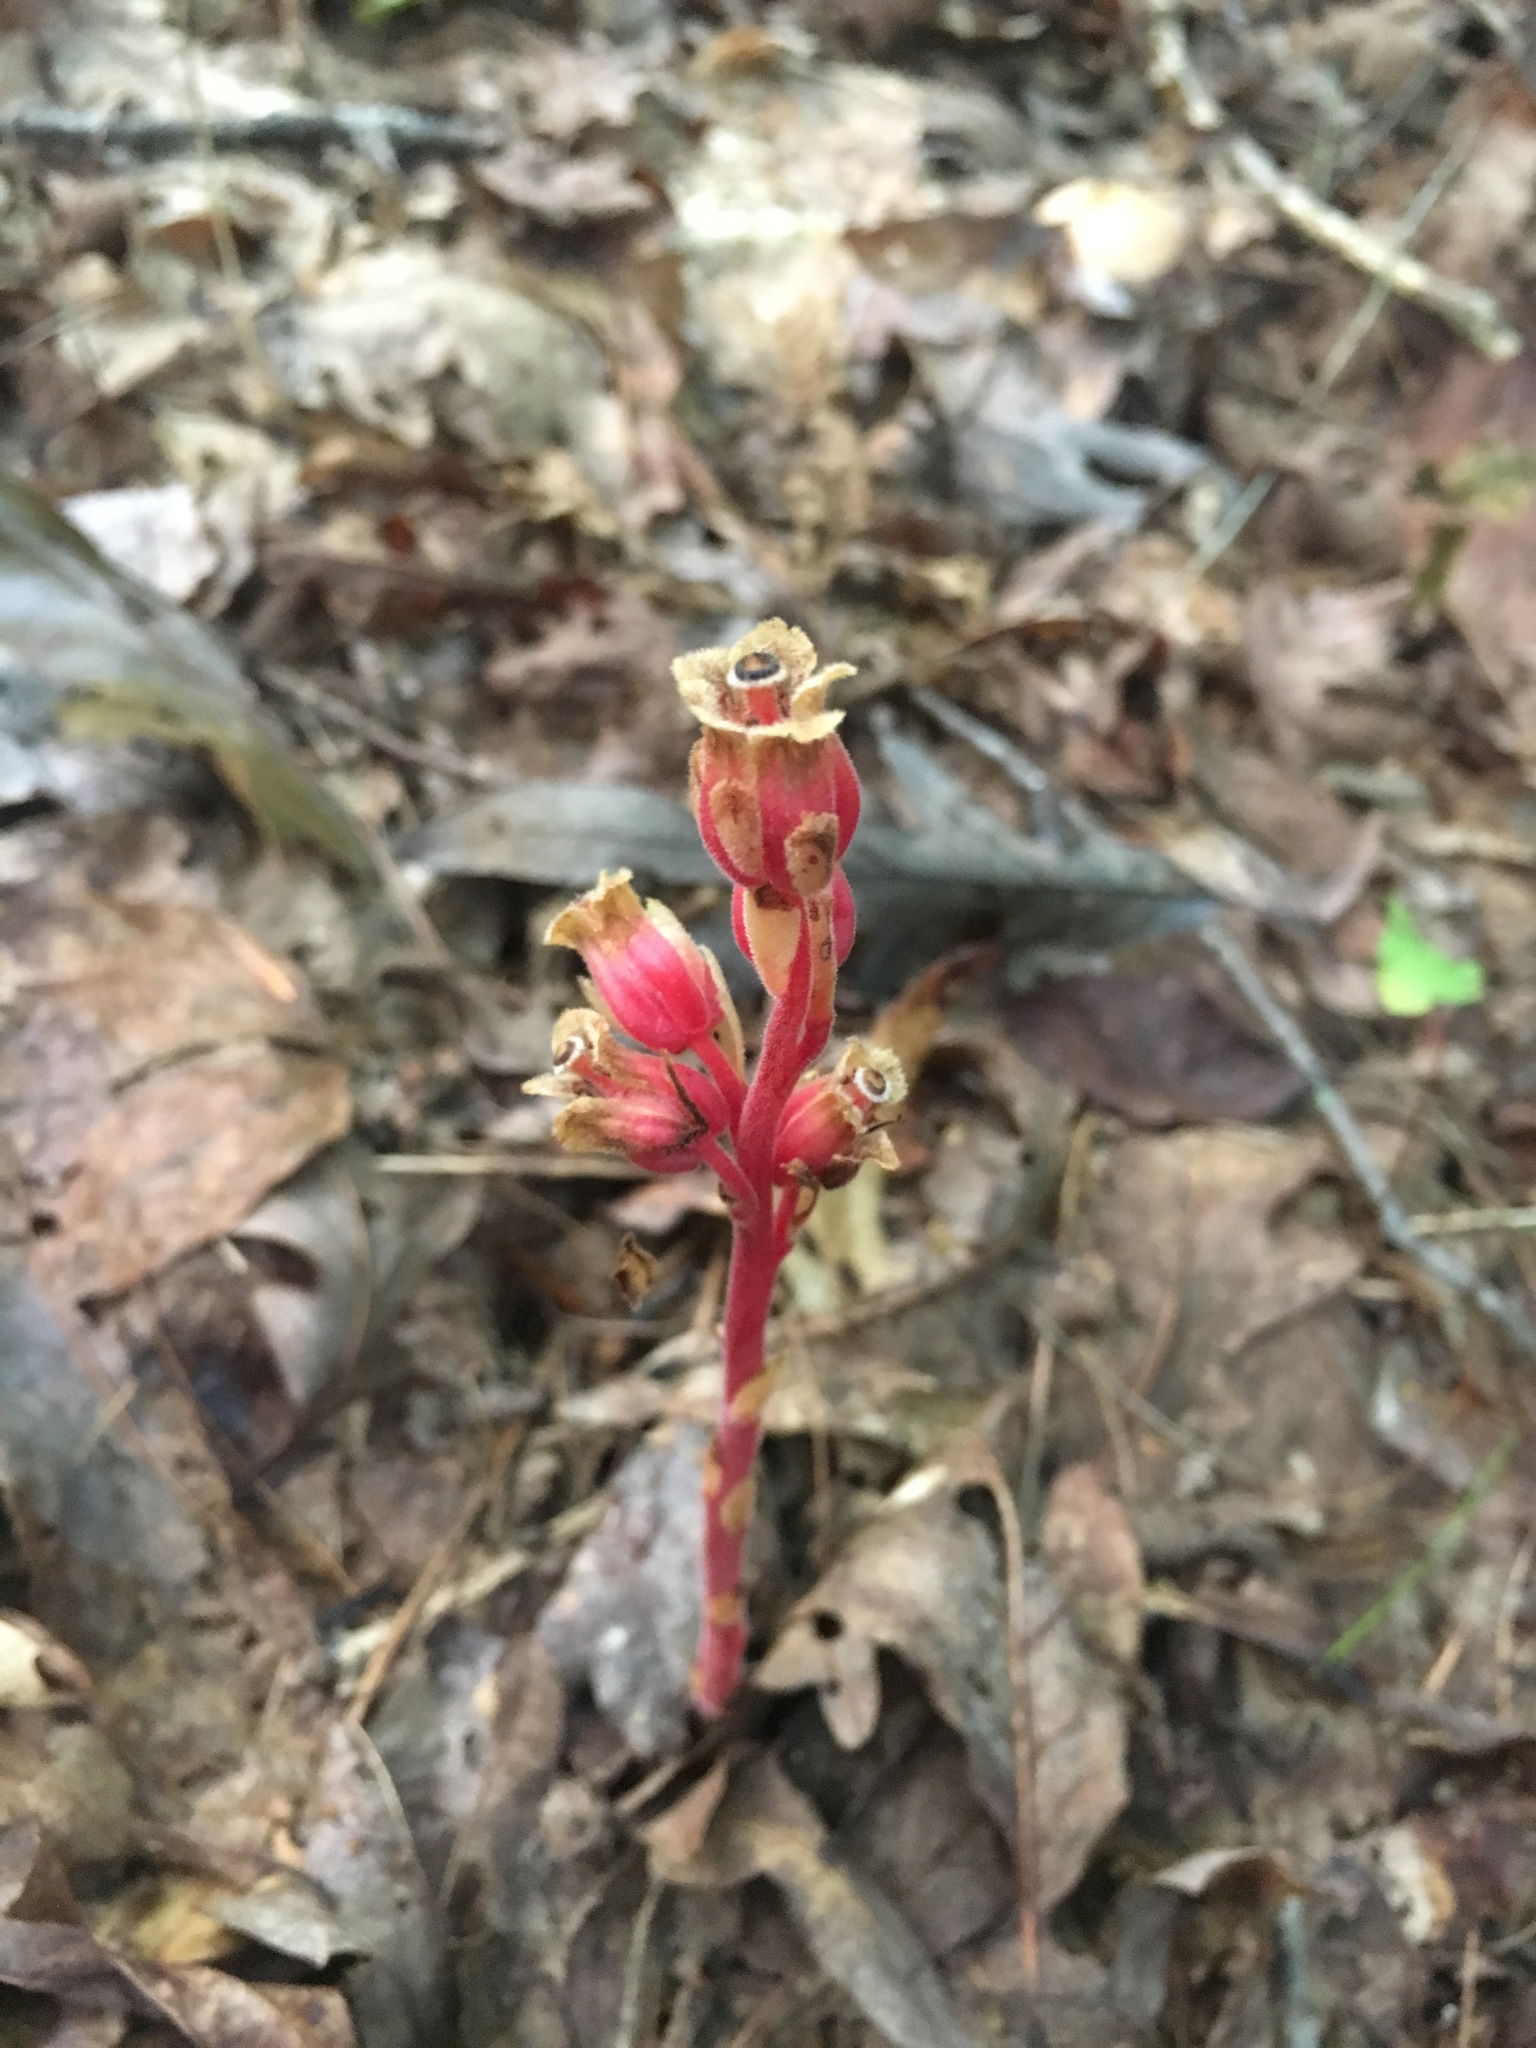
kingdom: Plantae
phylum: Tracheophyta
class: Magnoliopsida
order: Ericales
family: Ericaceae
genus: Hypopitys
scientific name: Hypopitys monotropa
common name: Yellow bird's-nest
